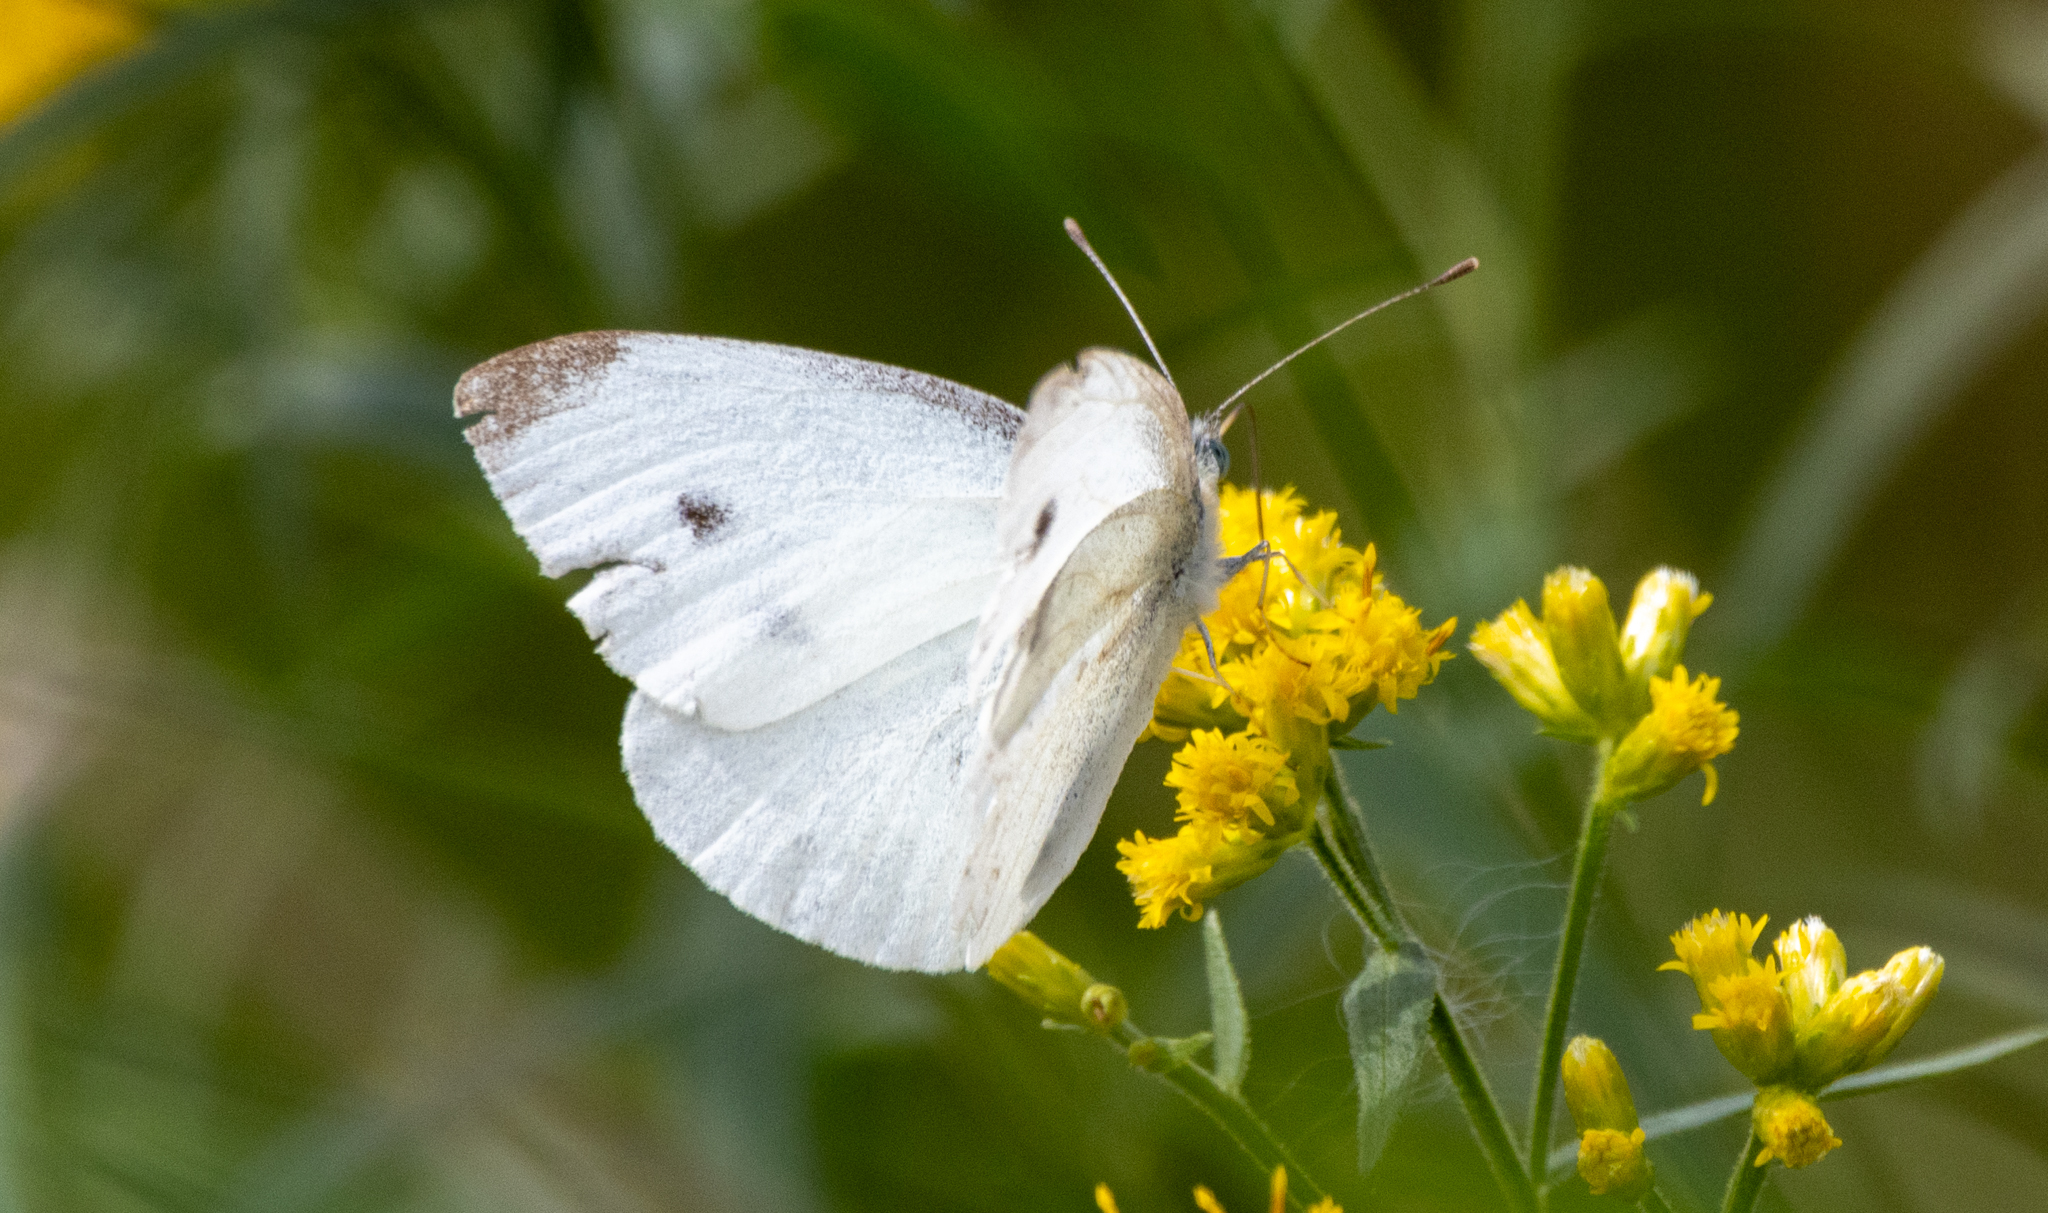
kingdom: Animalia
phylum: Arthropoda
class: Insecta
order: Lepidoptera
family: Pieridae
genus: Pieris
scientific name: Pieris rapae
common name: Small white
